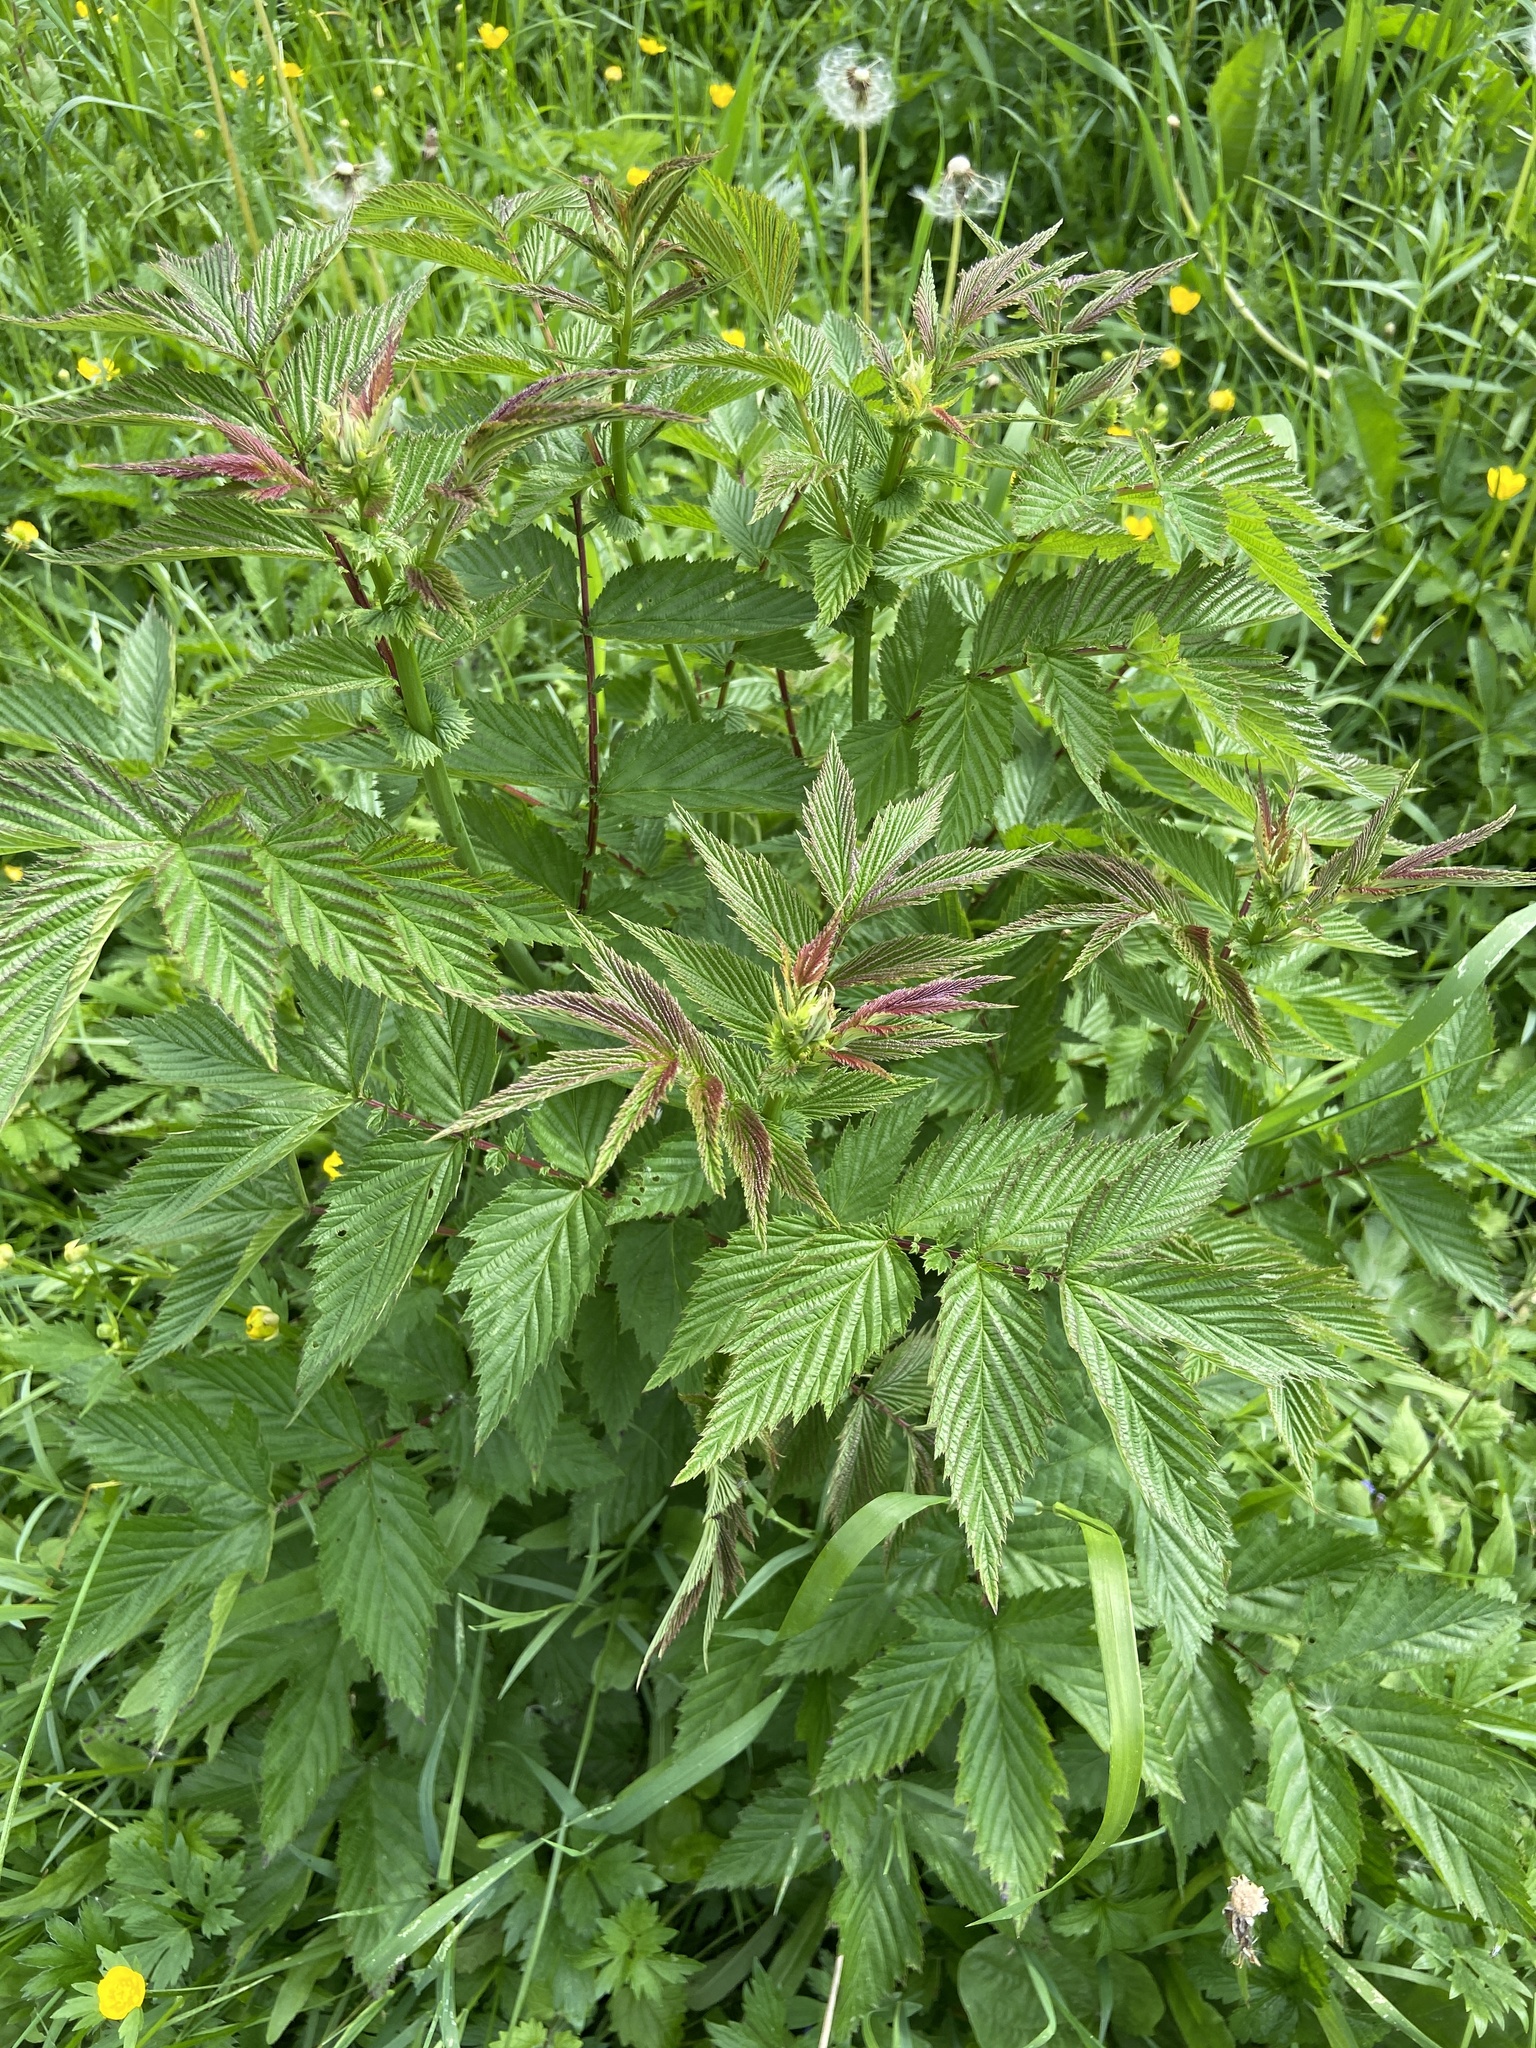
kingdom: Plantae
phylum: Tracheophyta
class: Magnoliopsida
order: Rosales
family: Rosaceae
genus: Filipendula
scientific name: Filipendula ulmaria
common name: Meadowsweet
